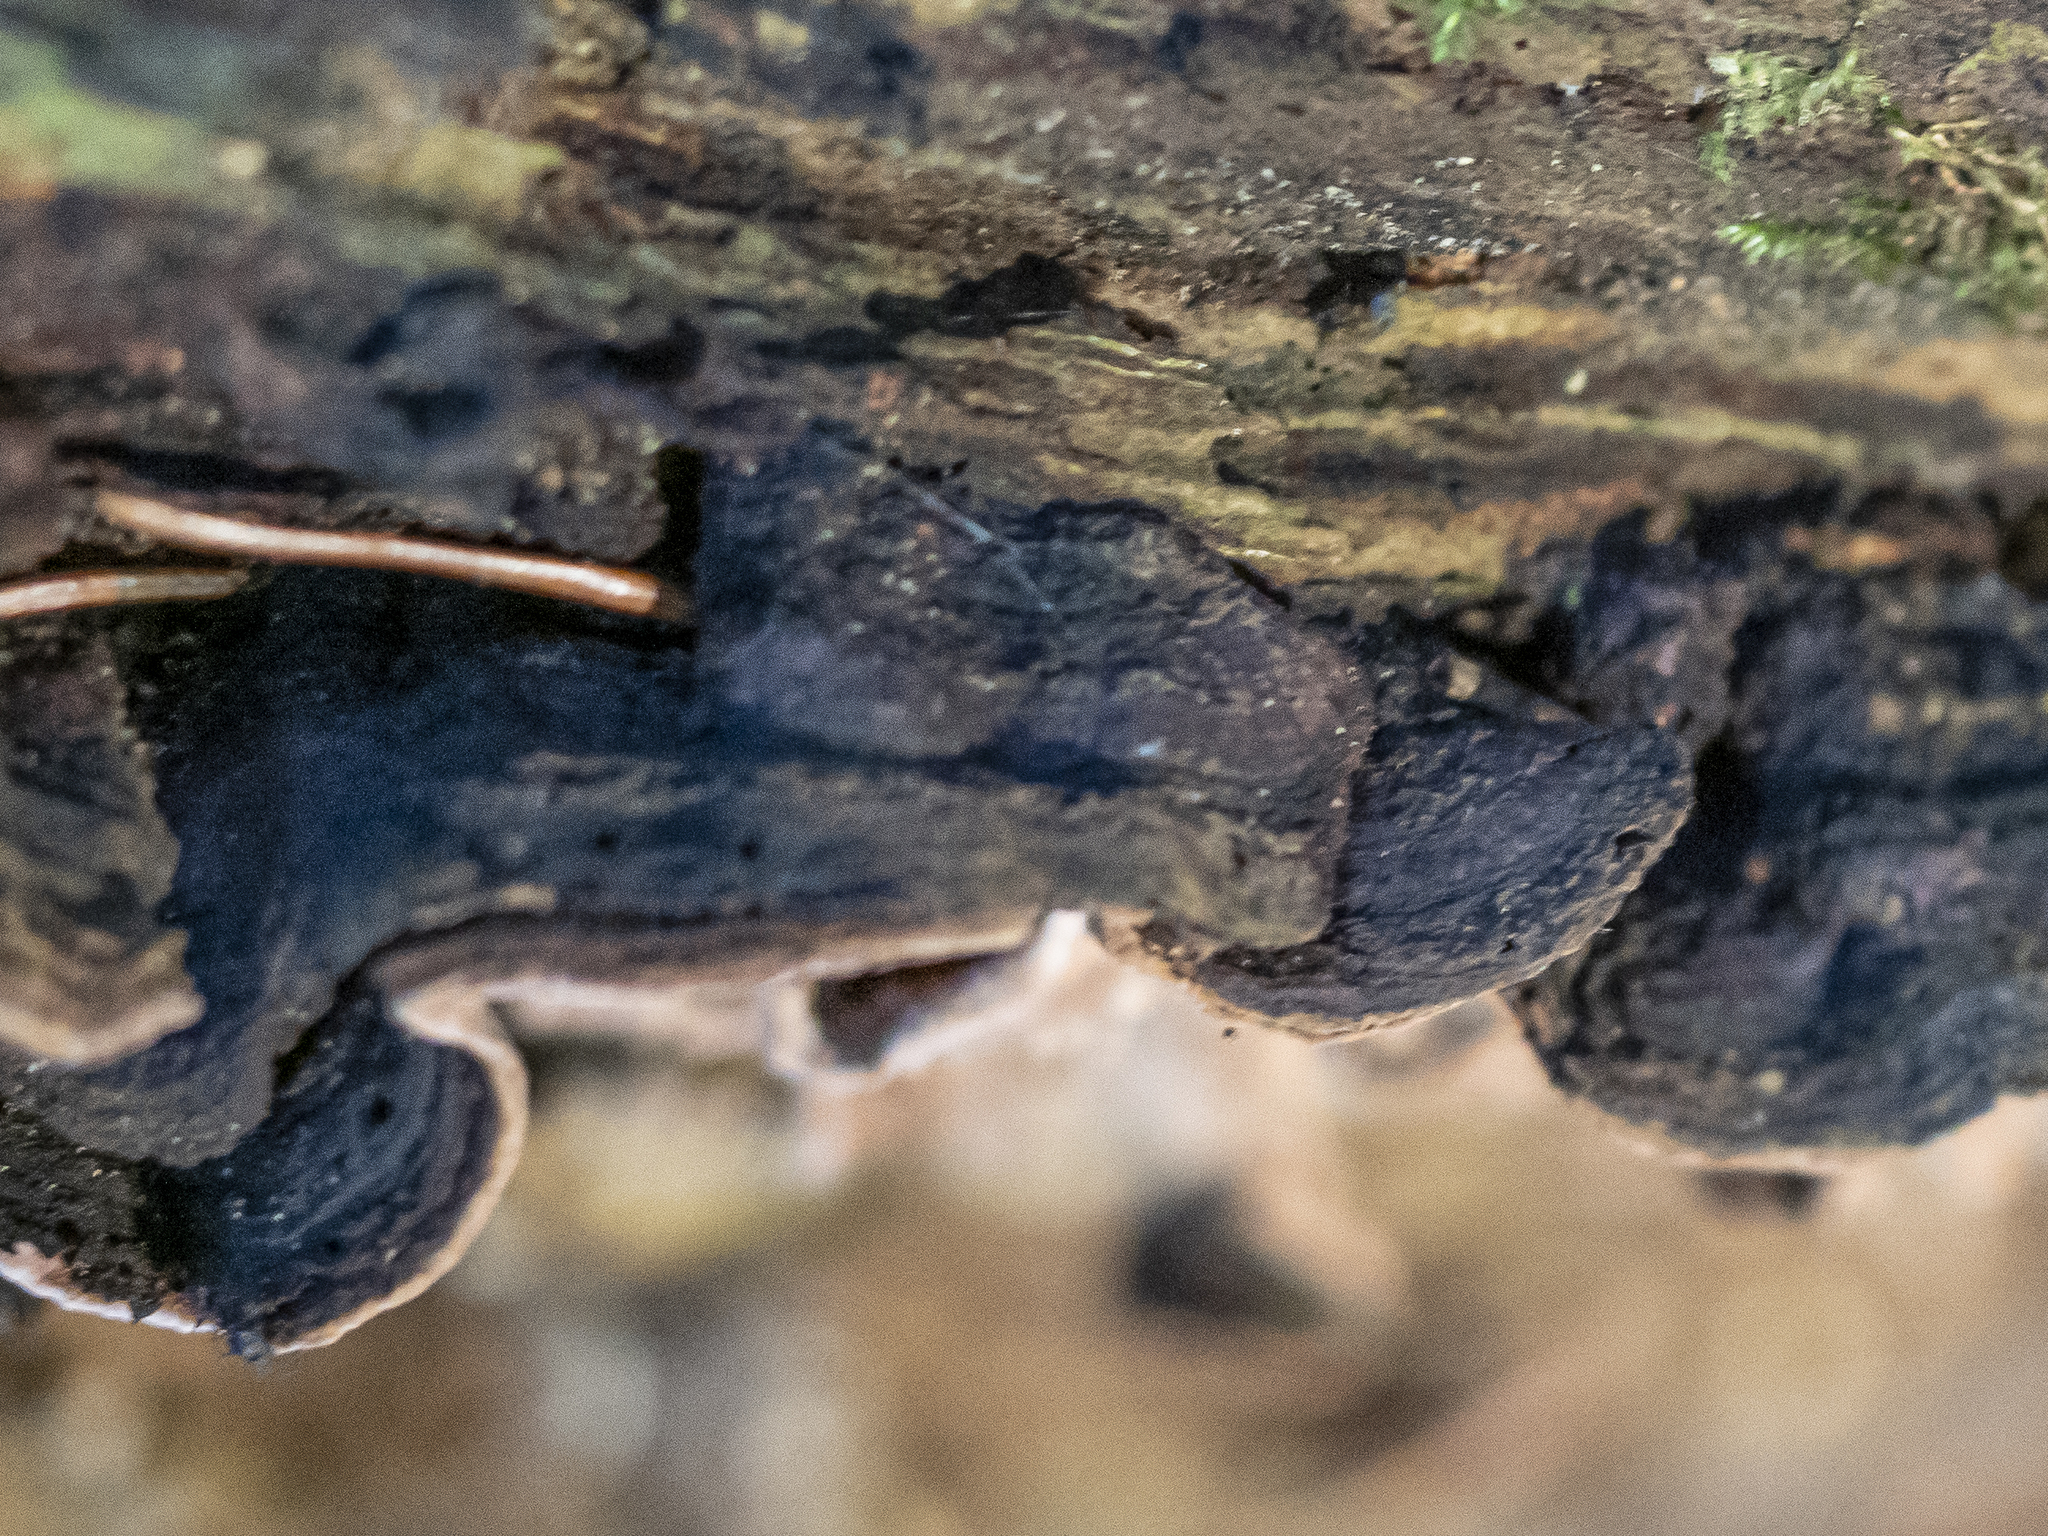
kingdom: Fungi
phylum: Basidiomycota
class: Agaricomycetes
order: Russulales
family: Echinodontiaceae
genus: Amylostereum
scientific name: Amylostereum areolatum
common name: White rot fungus
